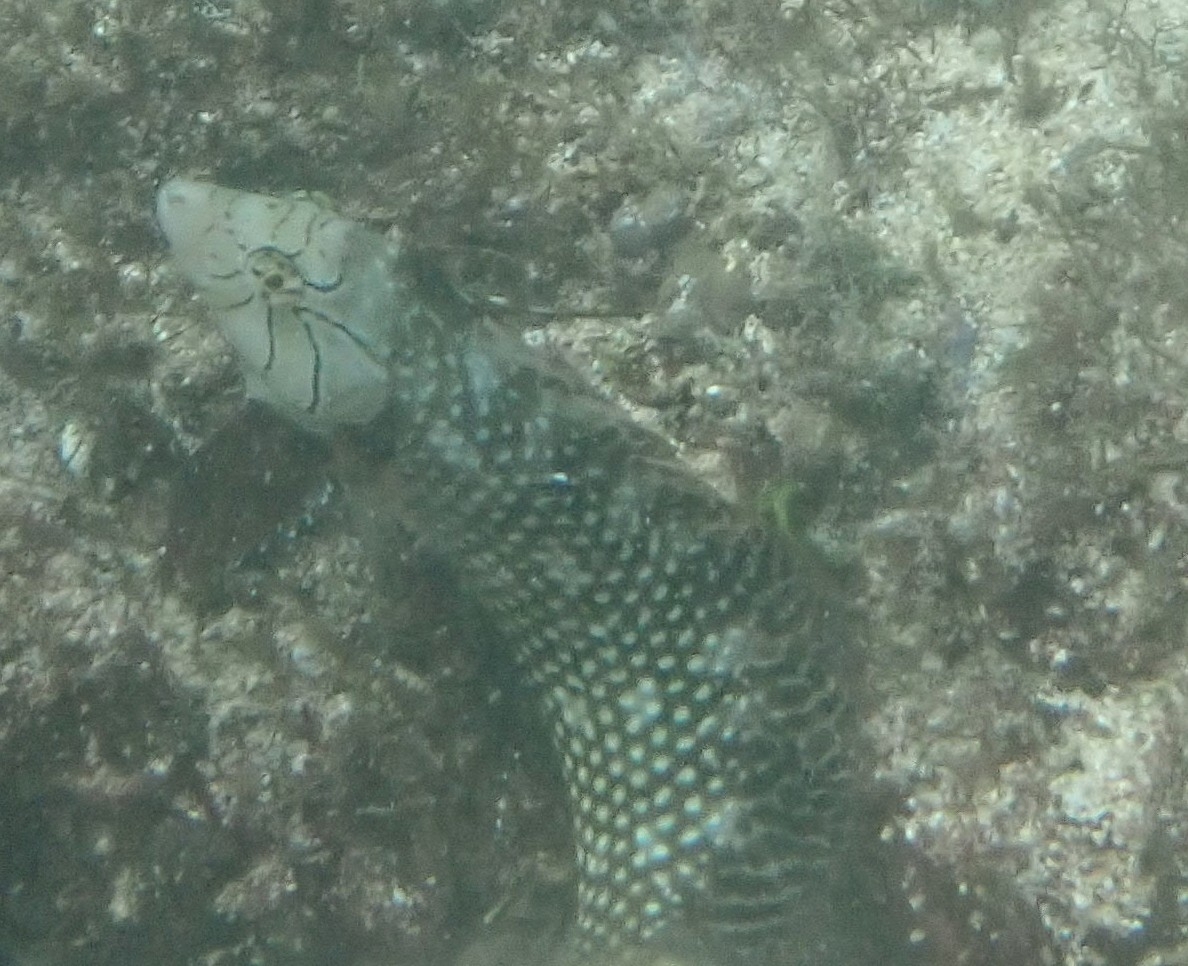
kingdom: Animalia
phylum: Chordata
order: Perciformes
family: Labridae
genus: Novaculichthys
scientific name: Novaculichthys taeniourus
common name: Rockmover wrasse
